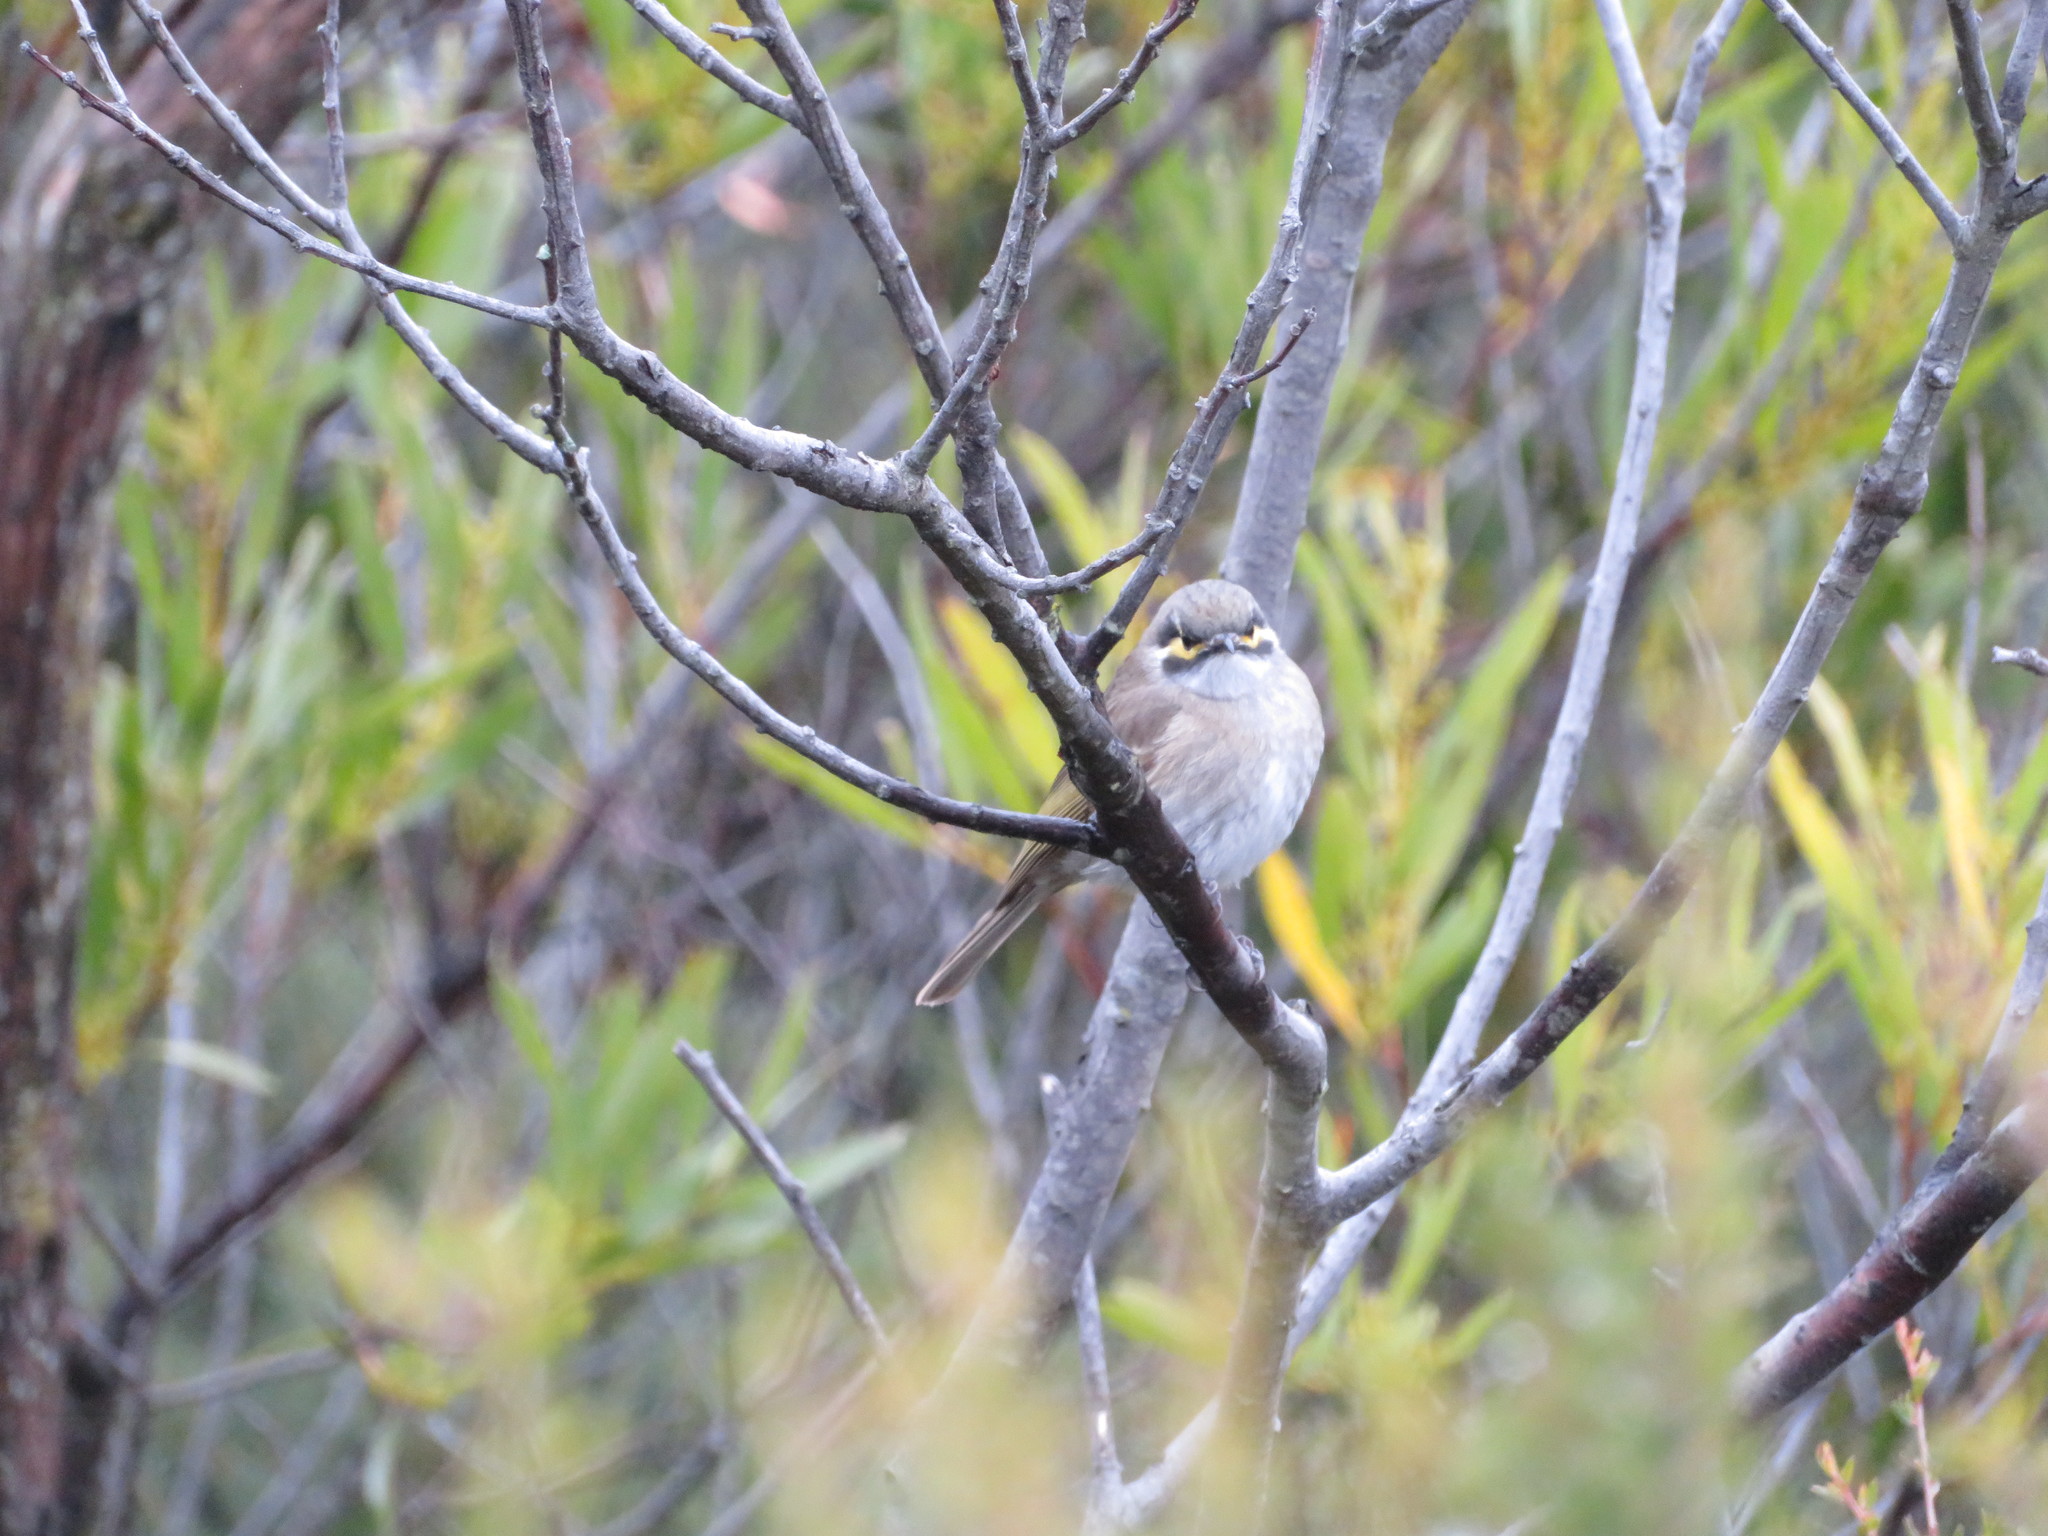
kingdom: Animalia
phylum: Chordata
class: Aves
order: Passeriformes
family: Meliphagidae
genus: Caligavis
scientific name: Caligavis chrysops
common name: Yellow-faced honeyeater
